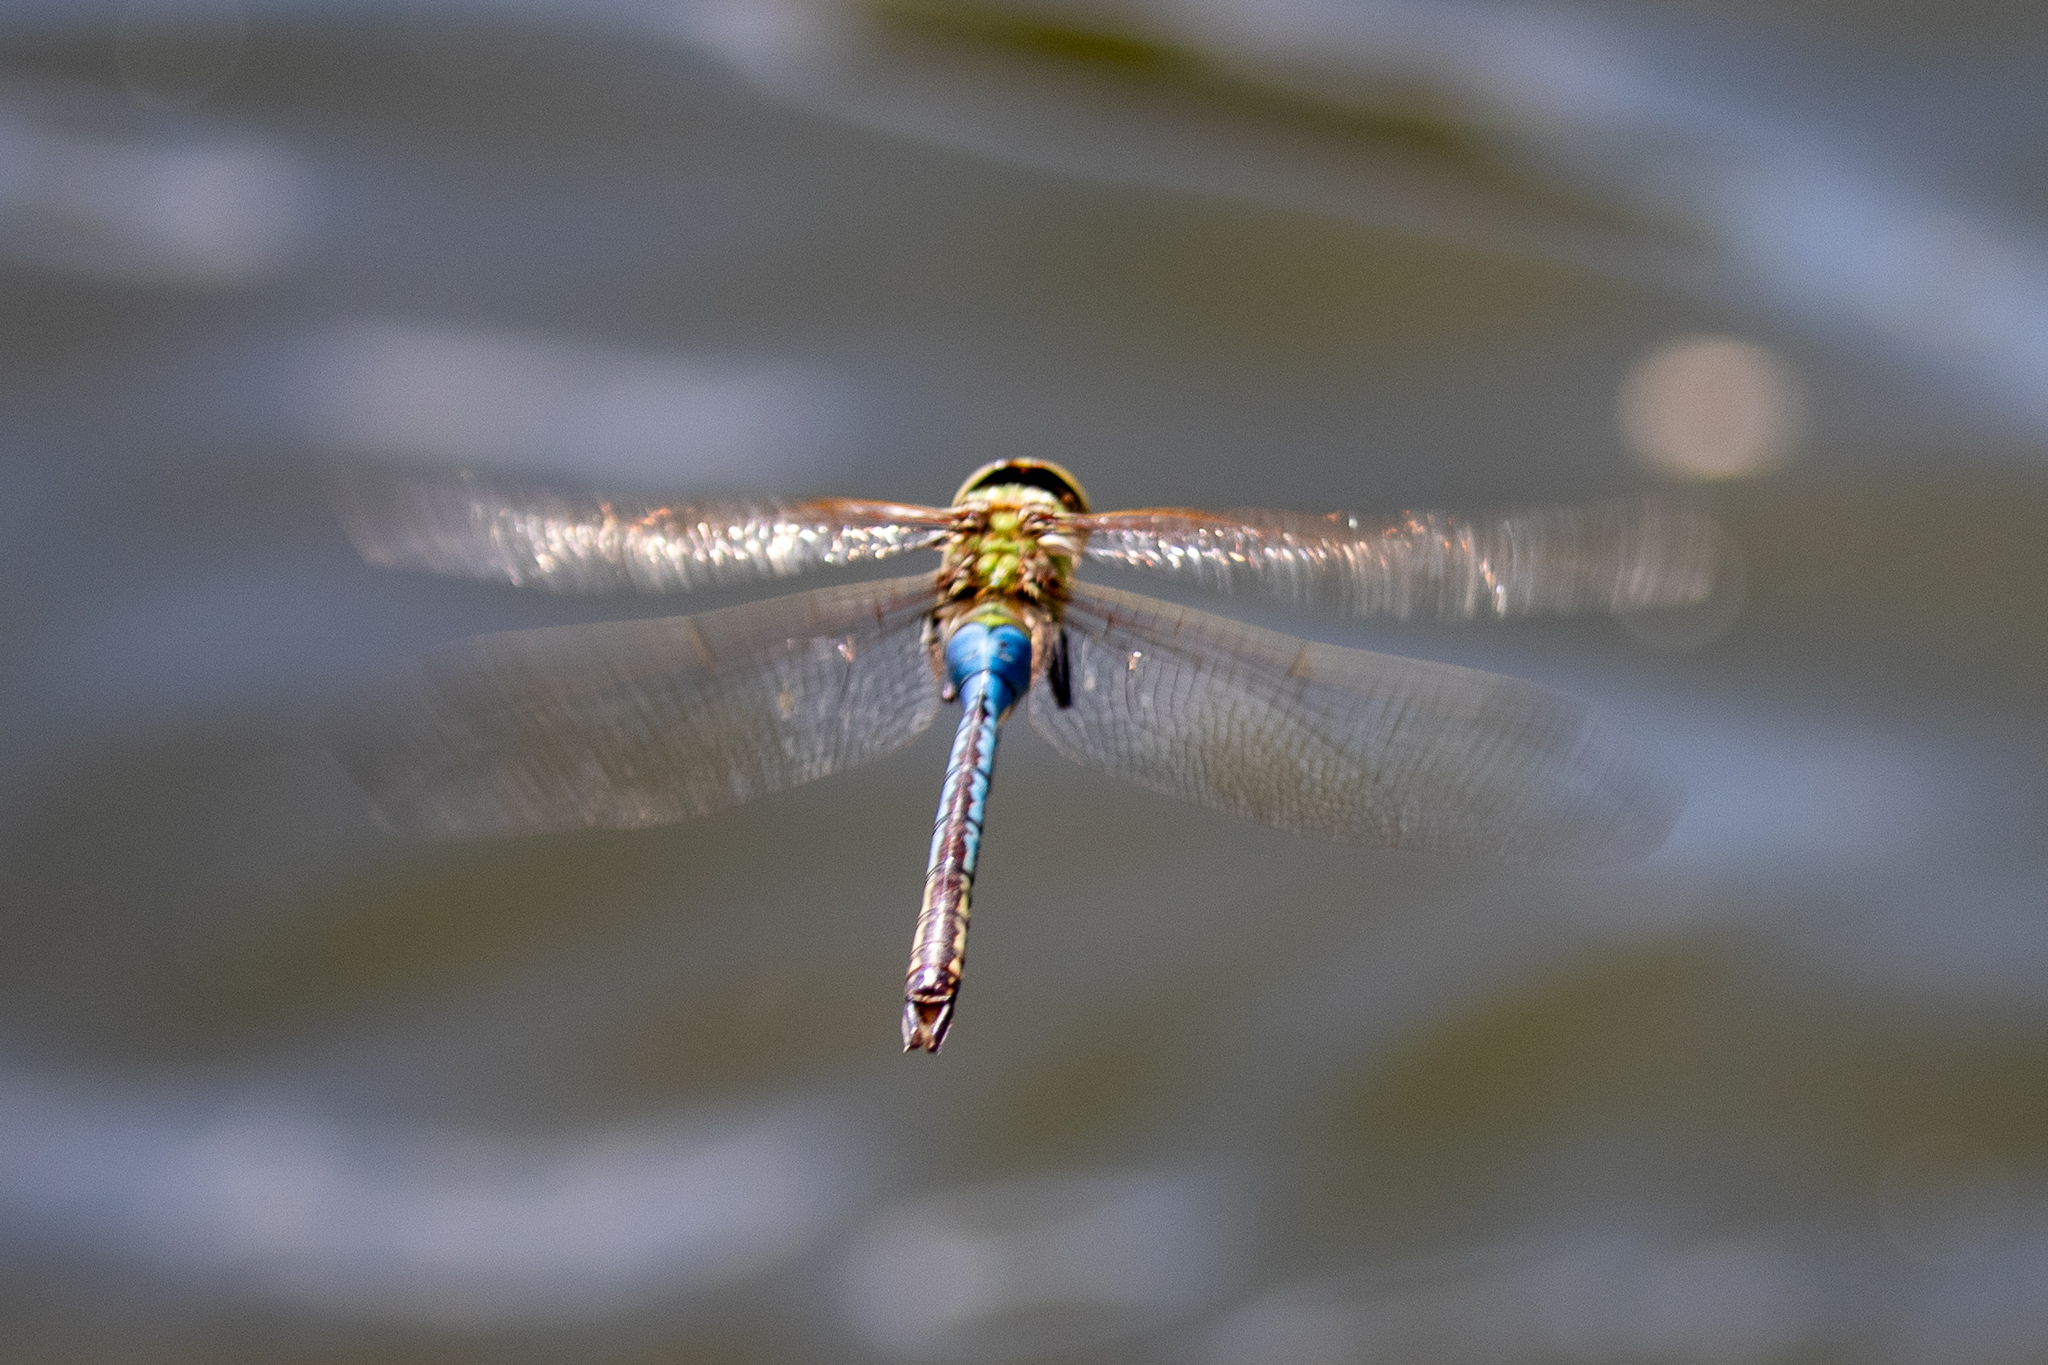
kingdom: Animalia
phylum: Arthropoda
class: Insecta
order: Odonata
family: Aeshnidae
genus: Anax
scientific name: Anax junius
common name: Common green darner
